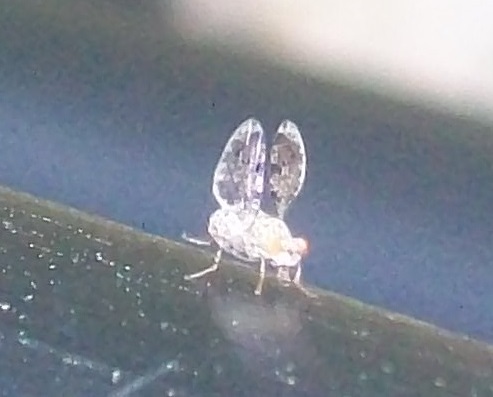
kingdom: Animalia
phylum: Arthropoda
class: Insecta
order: Diptera
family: Ulidiidae
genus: Callopistromyia
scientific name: Callopistromyia annulipes
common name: Peacock fly
